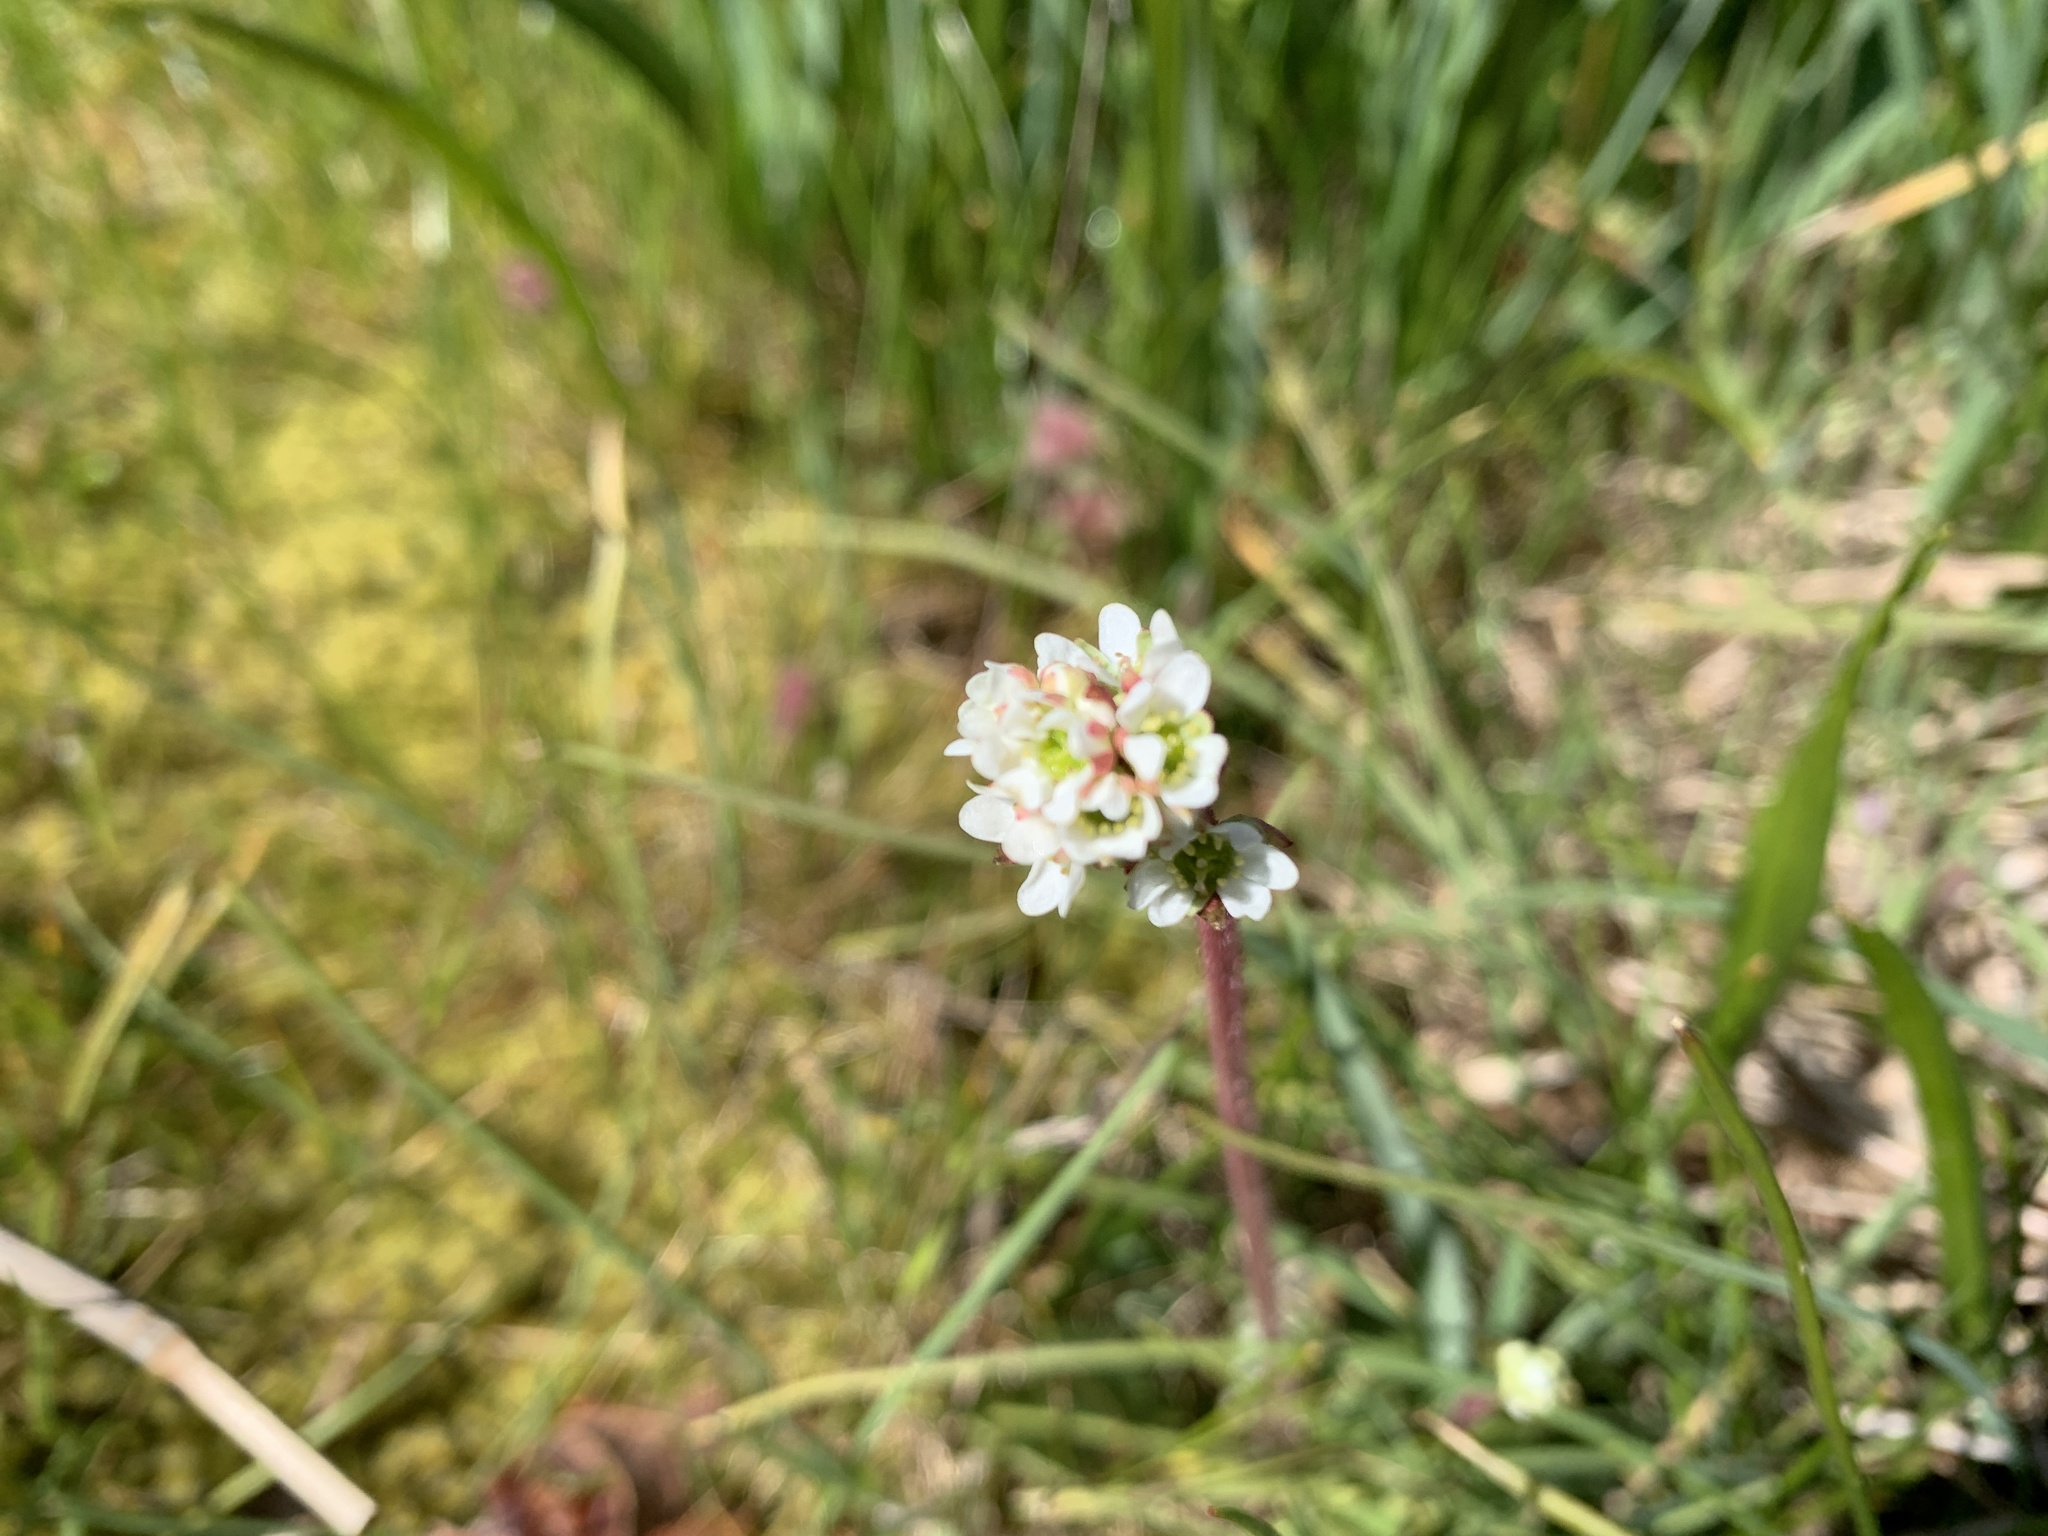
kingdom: Plantae
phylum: Tracheophyta
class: Magnoliopsida
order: Saxifragales
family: Saxifragaceae
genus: Micranthes
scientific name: Micranthes integrifolia
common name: Wholeleaf saxifrage
